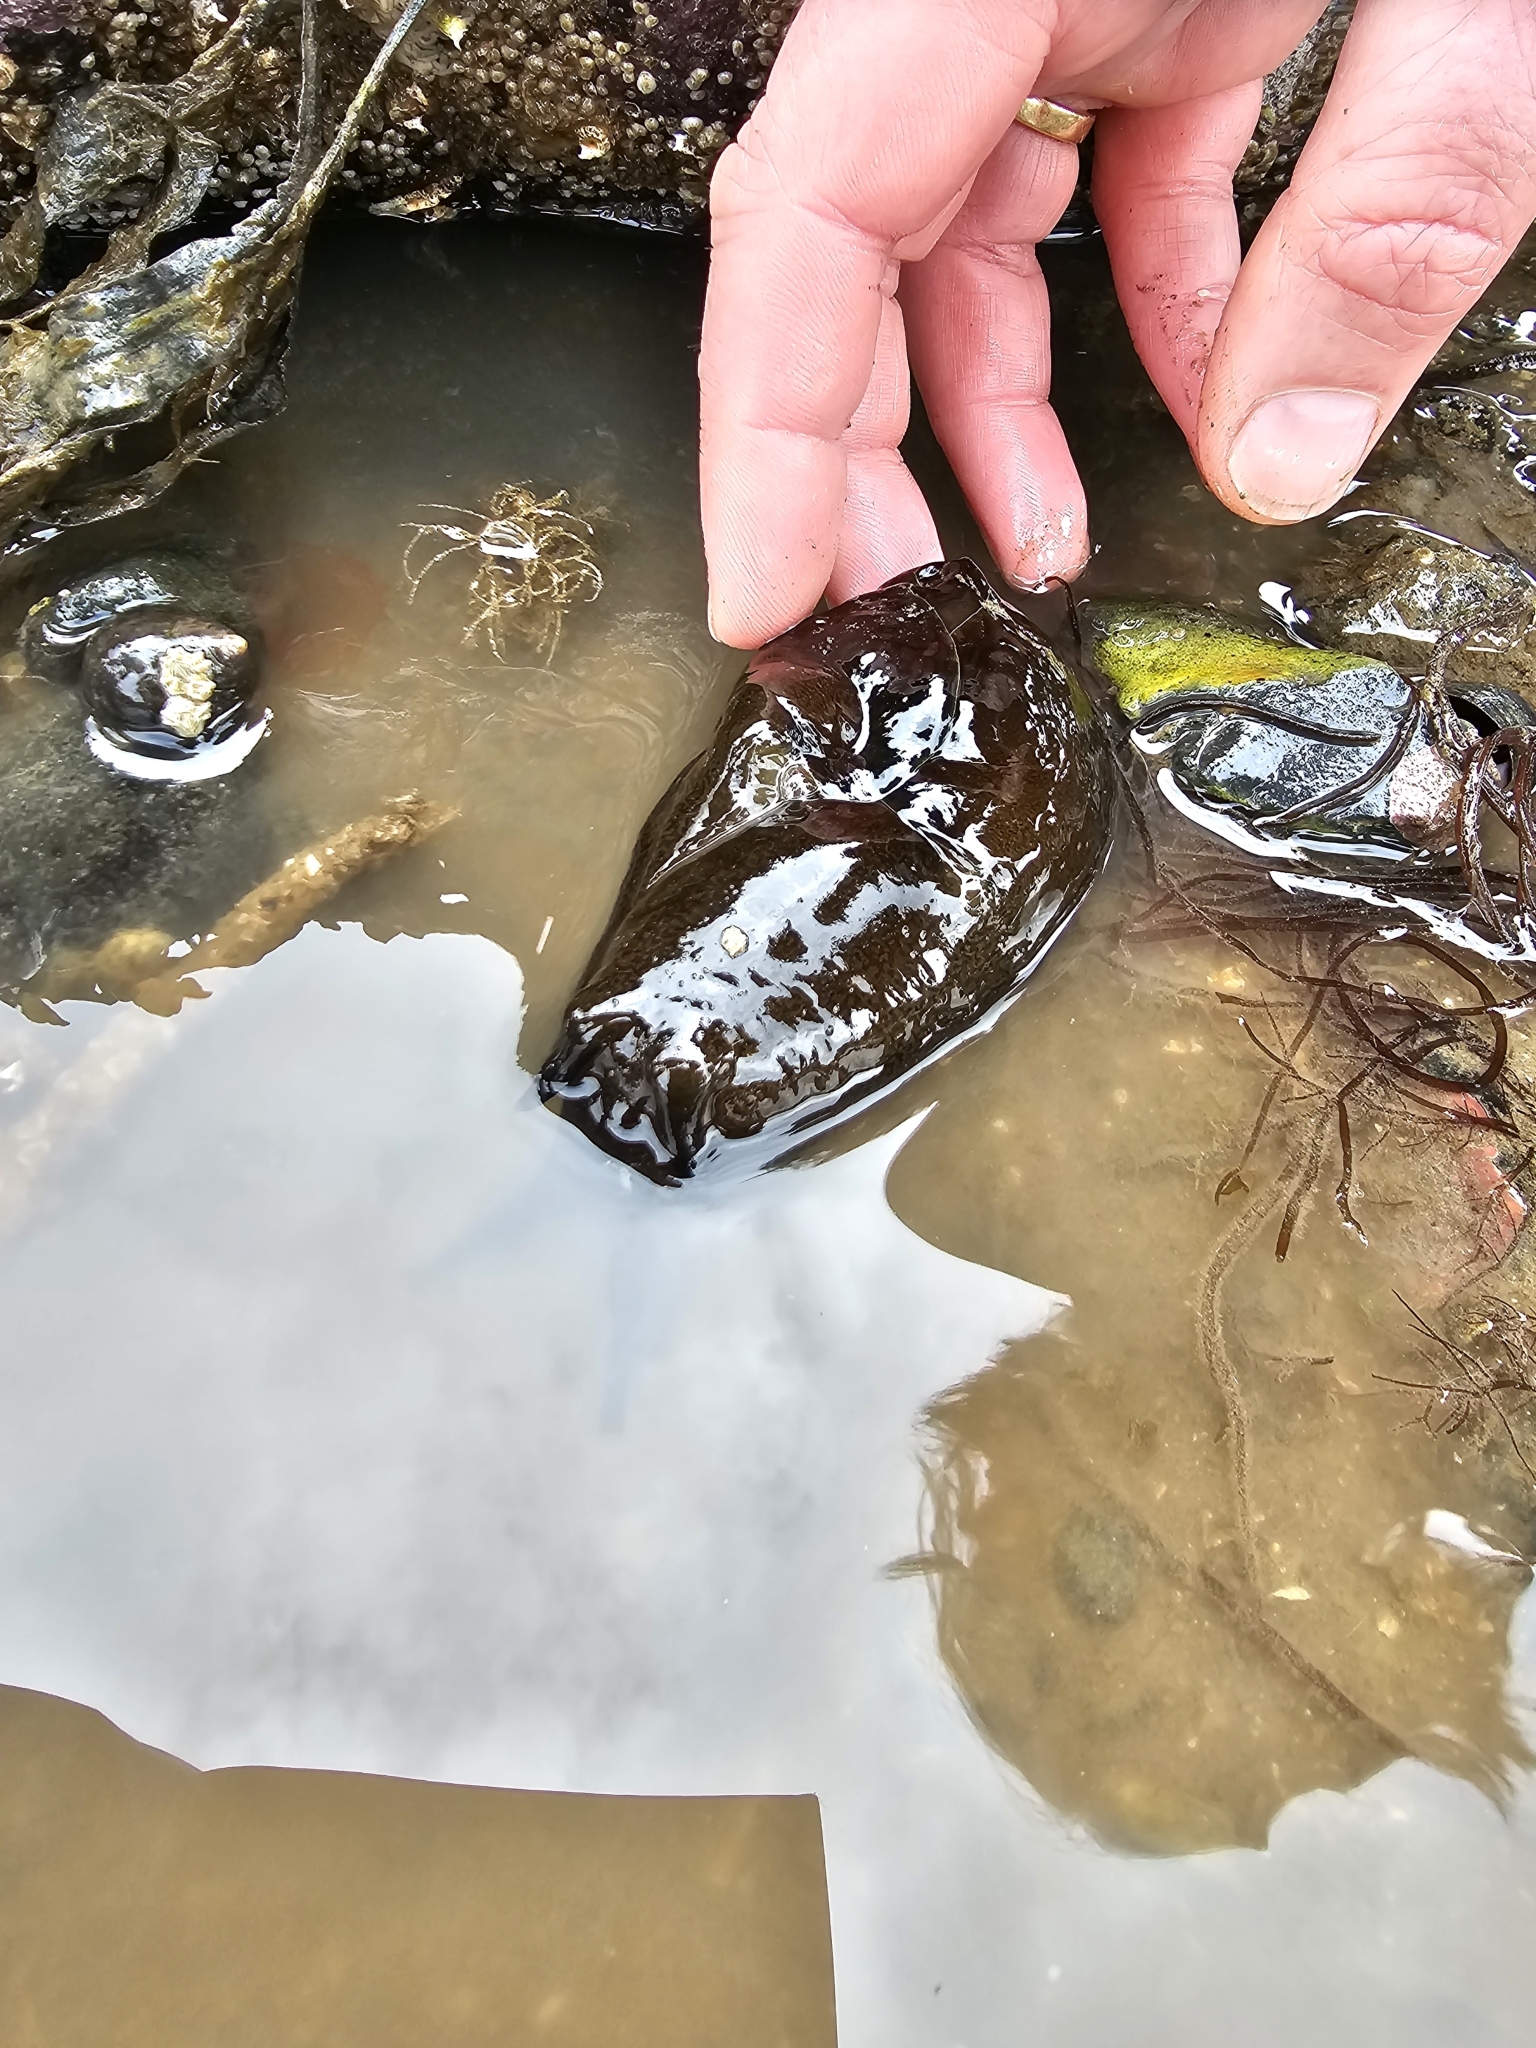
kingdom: Animalia
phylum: Mollusca
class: Gastropoda
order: Aplysiida
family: Aplysiidae
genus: Aplysia
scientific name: Aplysia punctata
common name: Common sea hare
